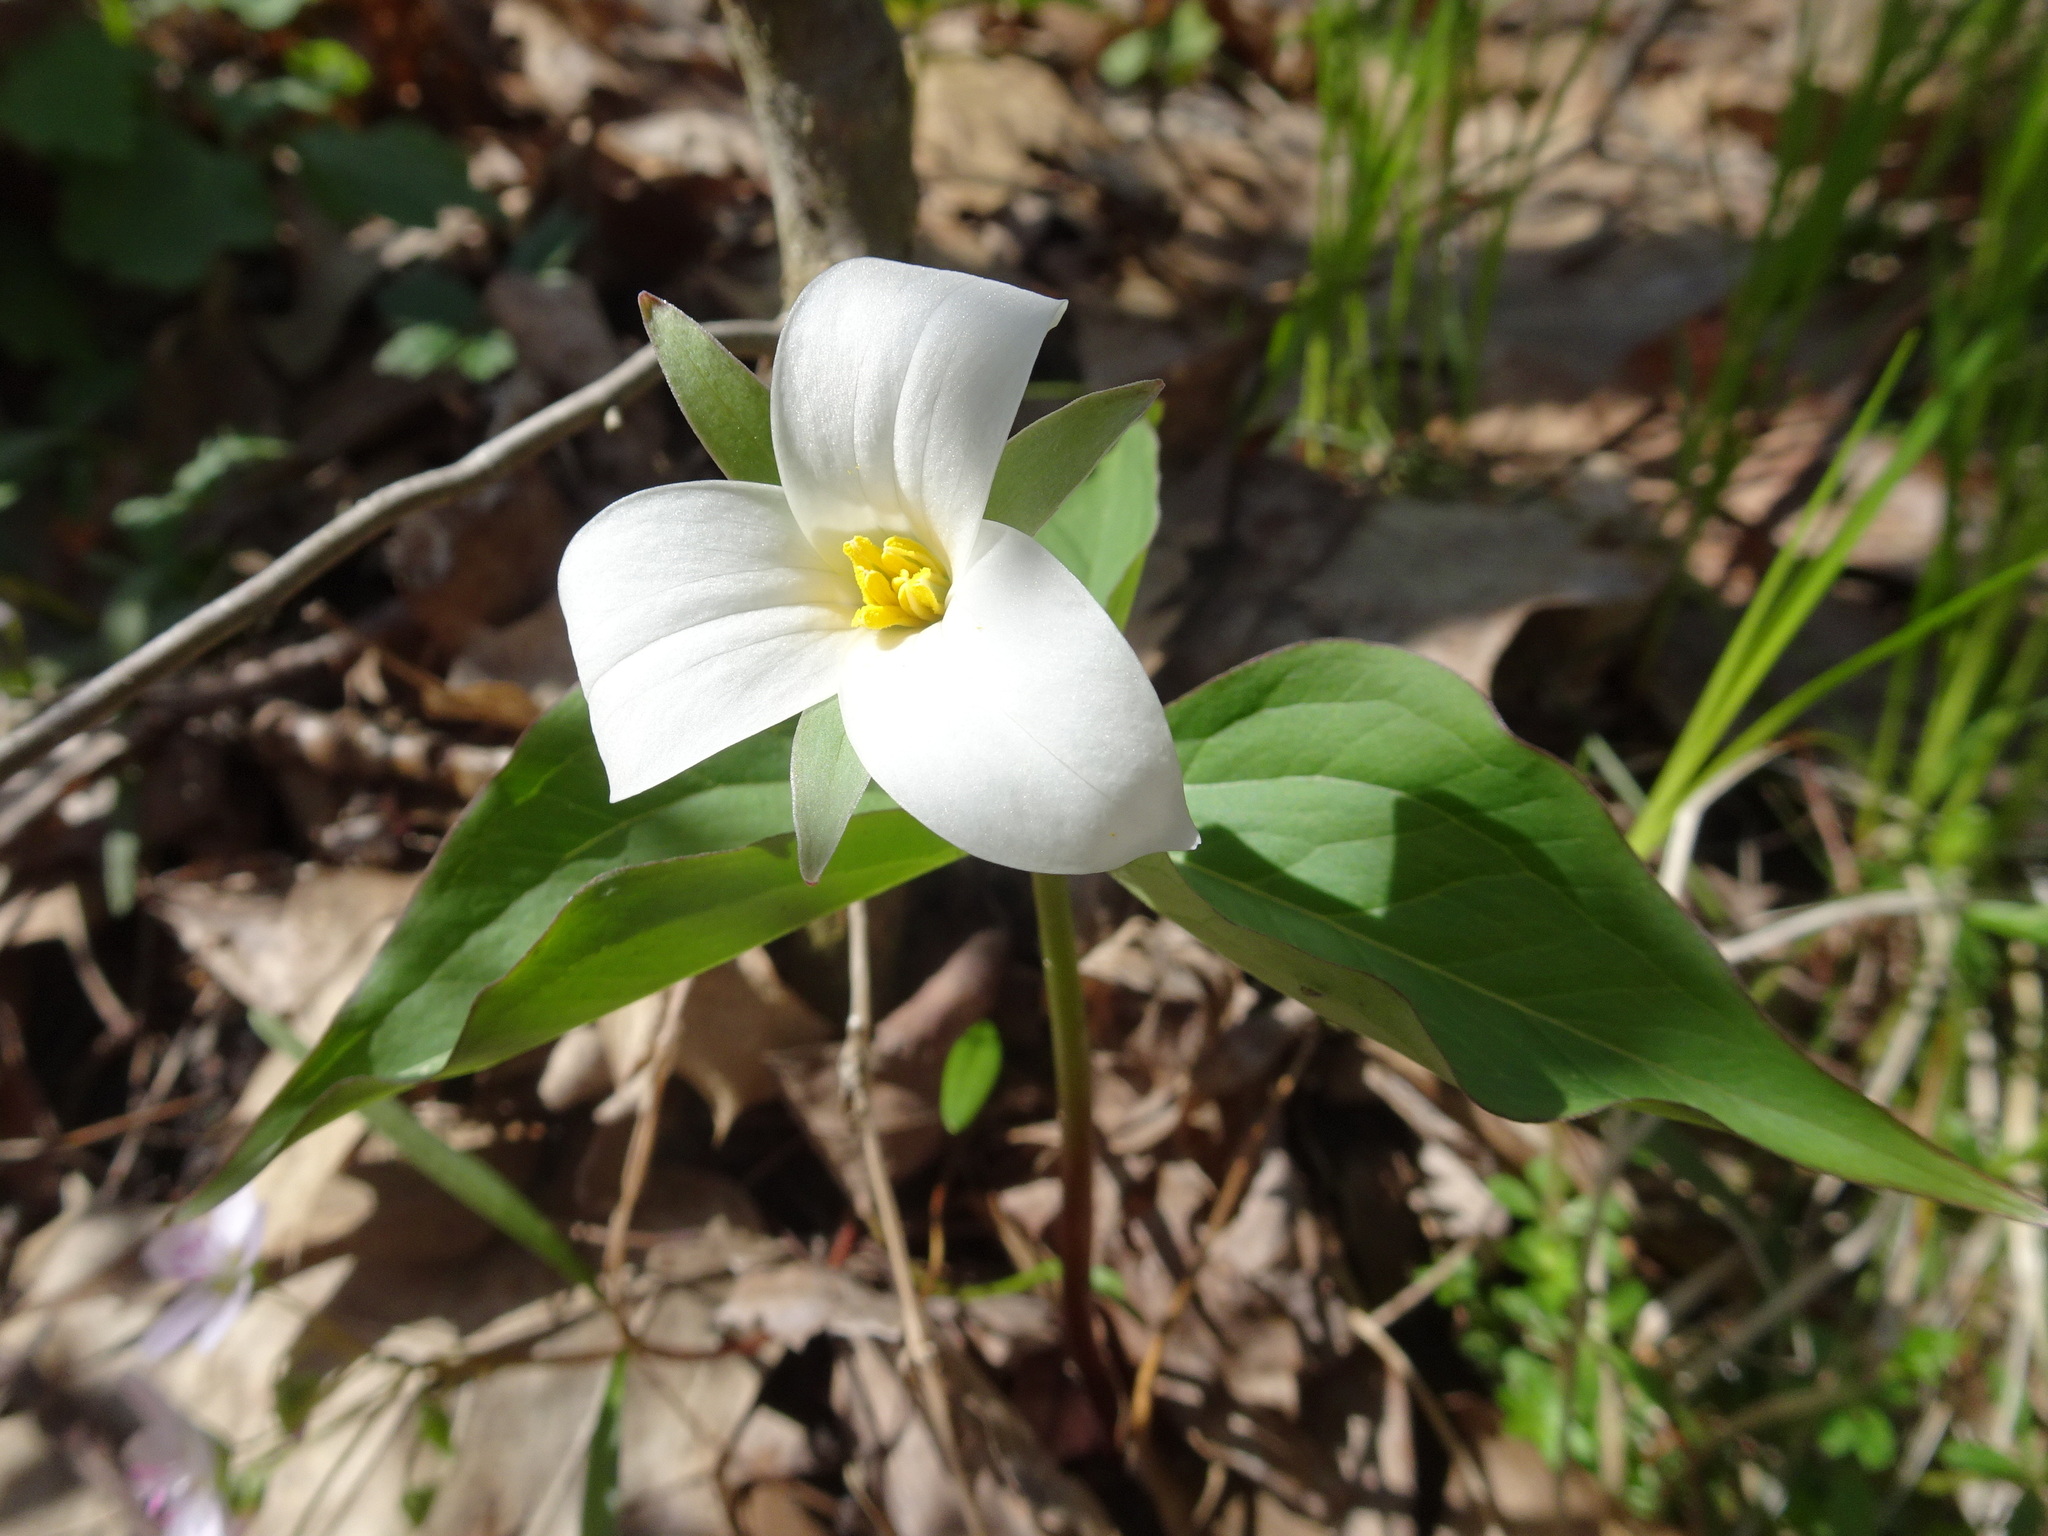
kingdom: Plantae
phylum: Tracheophyta
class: Liliopsida
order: Liliales
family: Melanthiaceae
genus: Trillium
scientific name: Trillium grandiflorum
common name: Great white trillium
